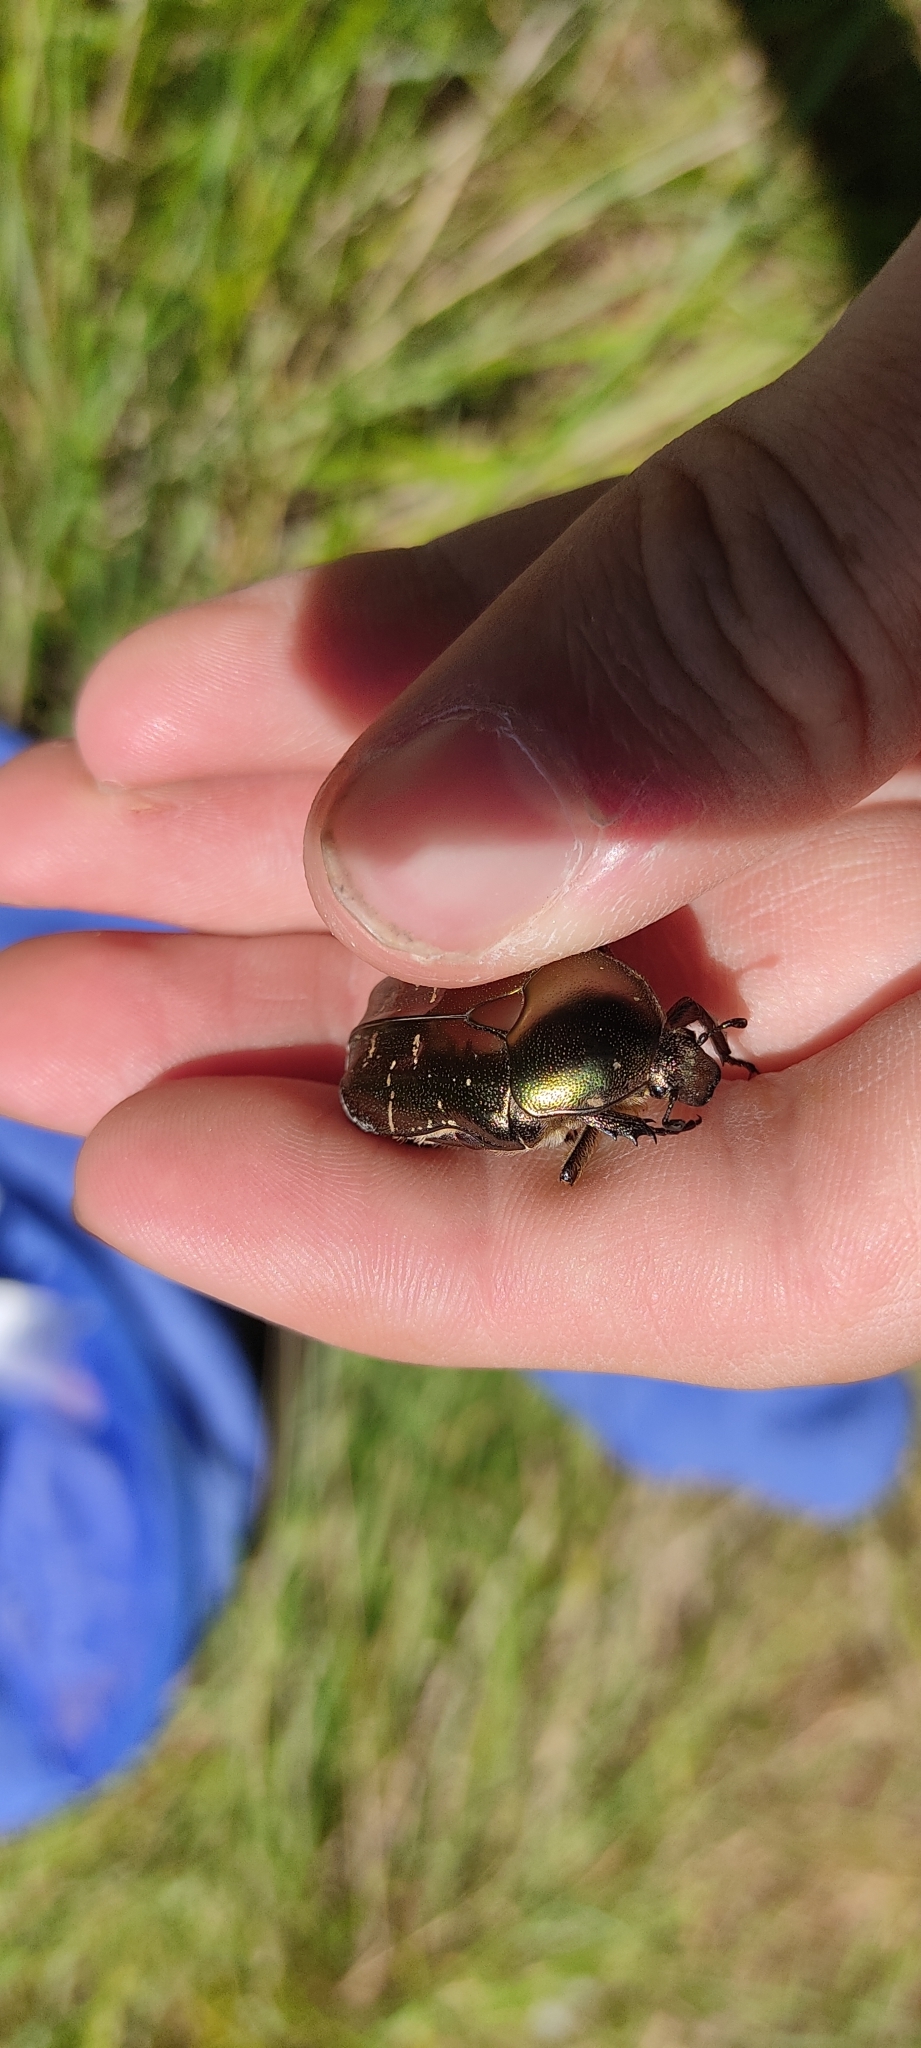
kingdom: Animalia
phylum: Arthropoda
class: Insecta
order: Coleoptera
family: Scarabaeidae
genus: Protaetia
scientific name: Protaetia cuprea
